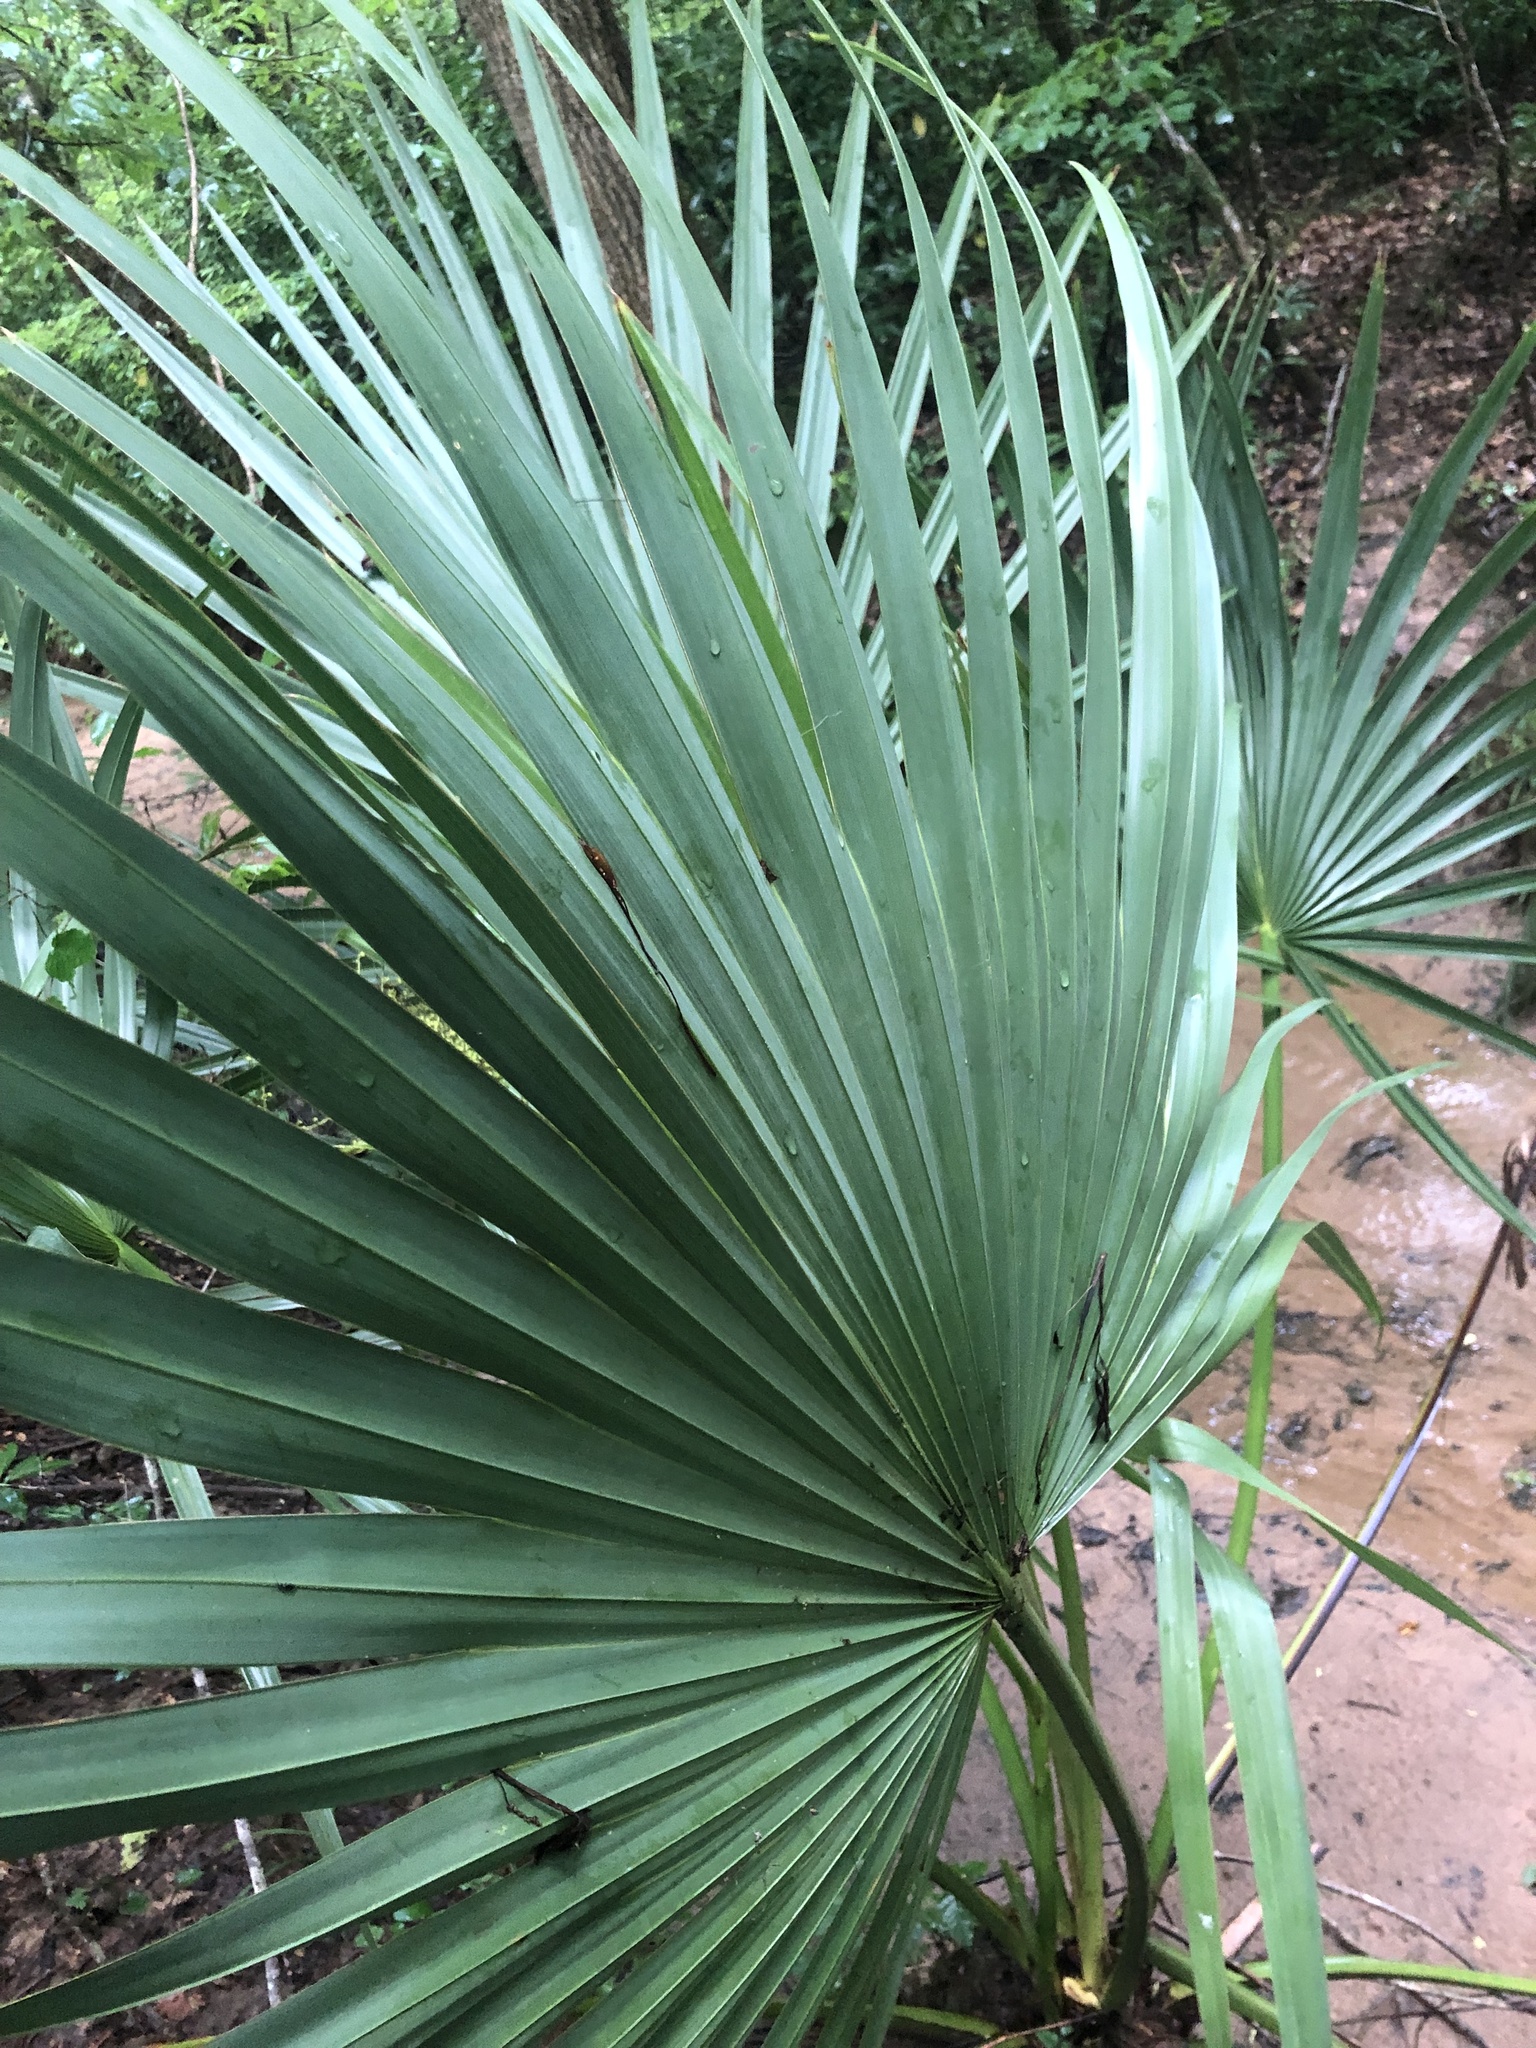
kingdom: Plantae
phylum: Tracheophyta
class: Liliopsida
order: Arecales
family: Arecaceae
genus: Sabal
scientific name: Sabal minor
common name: Dwarf palmetto
